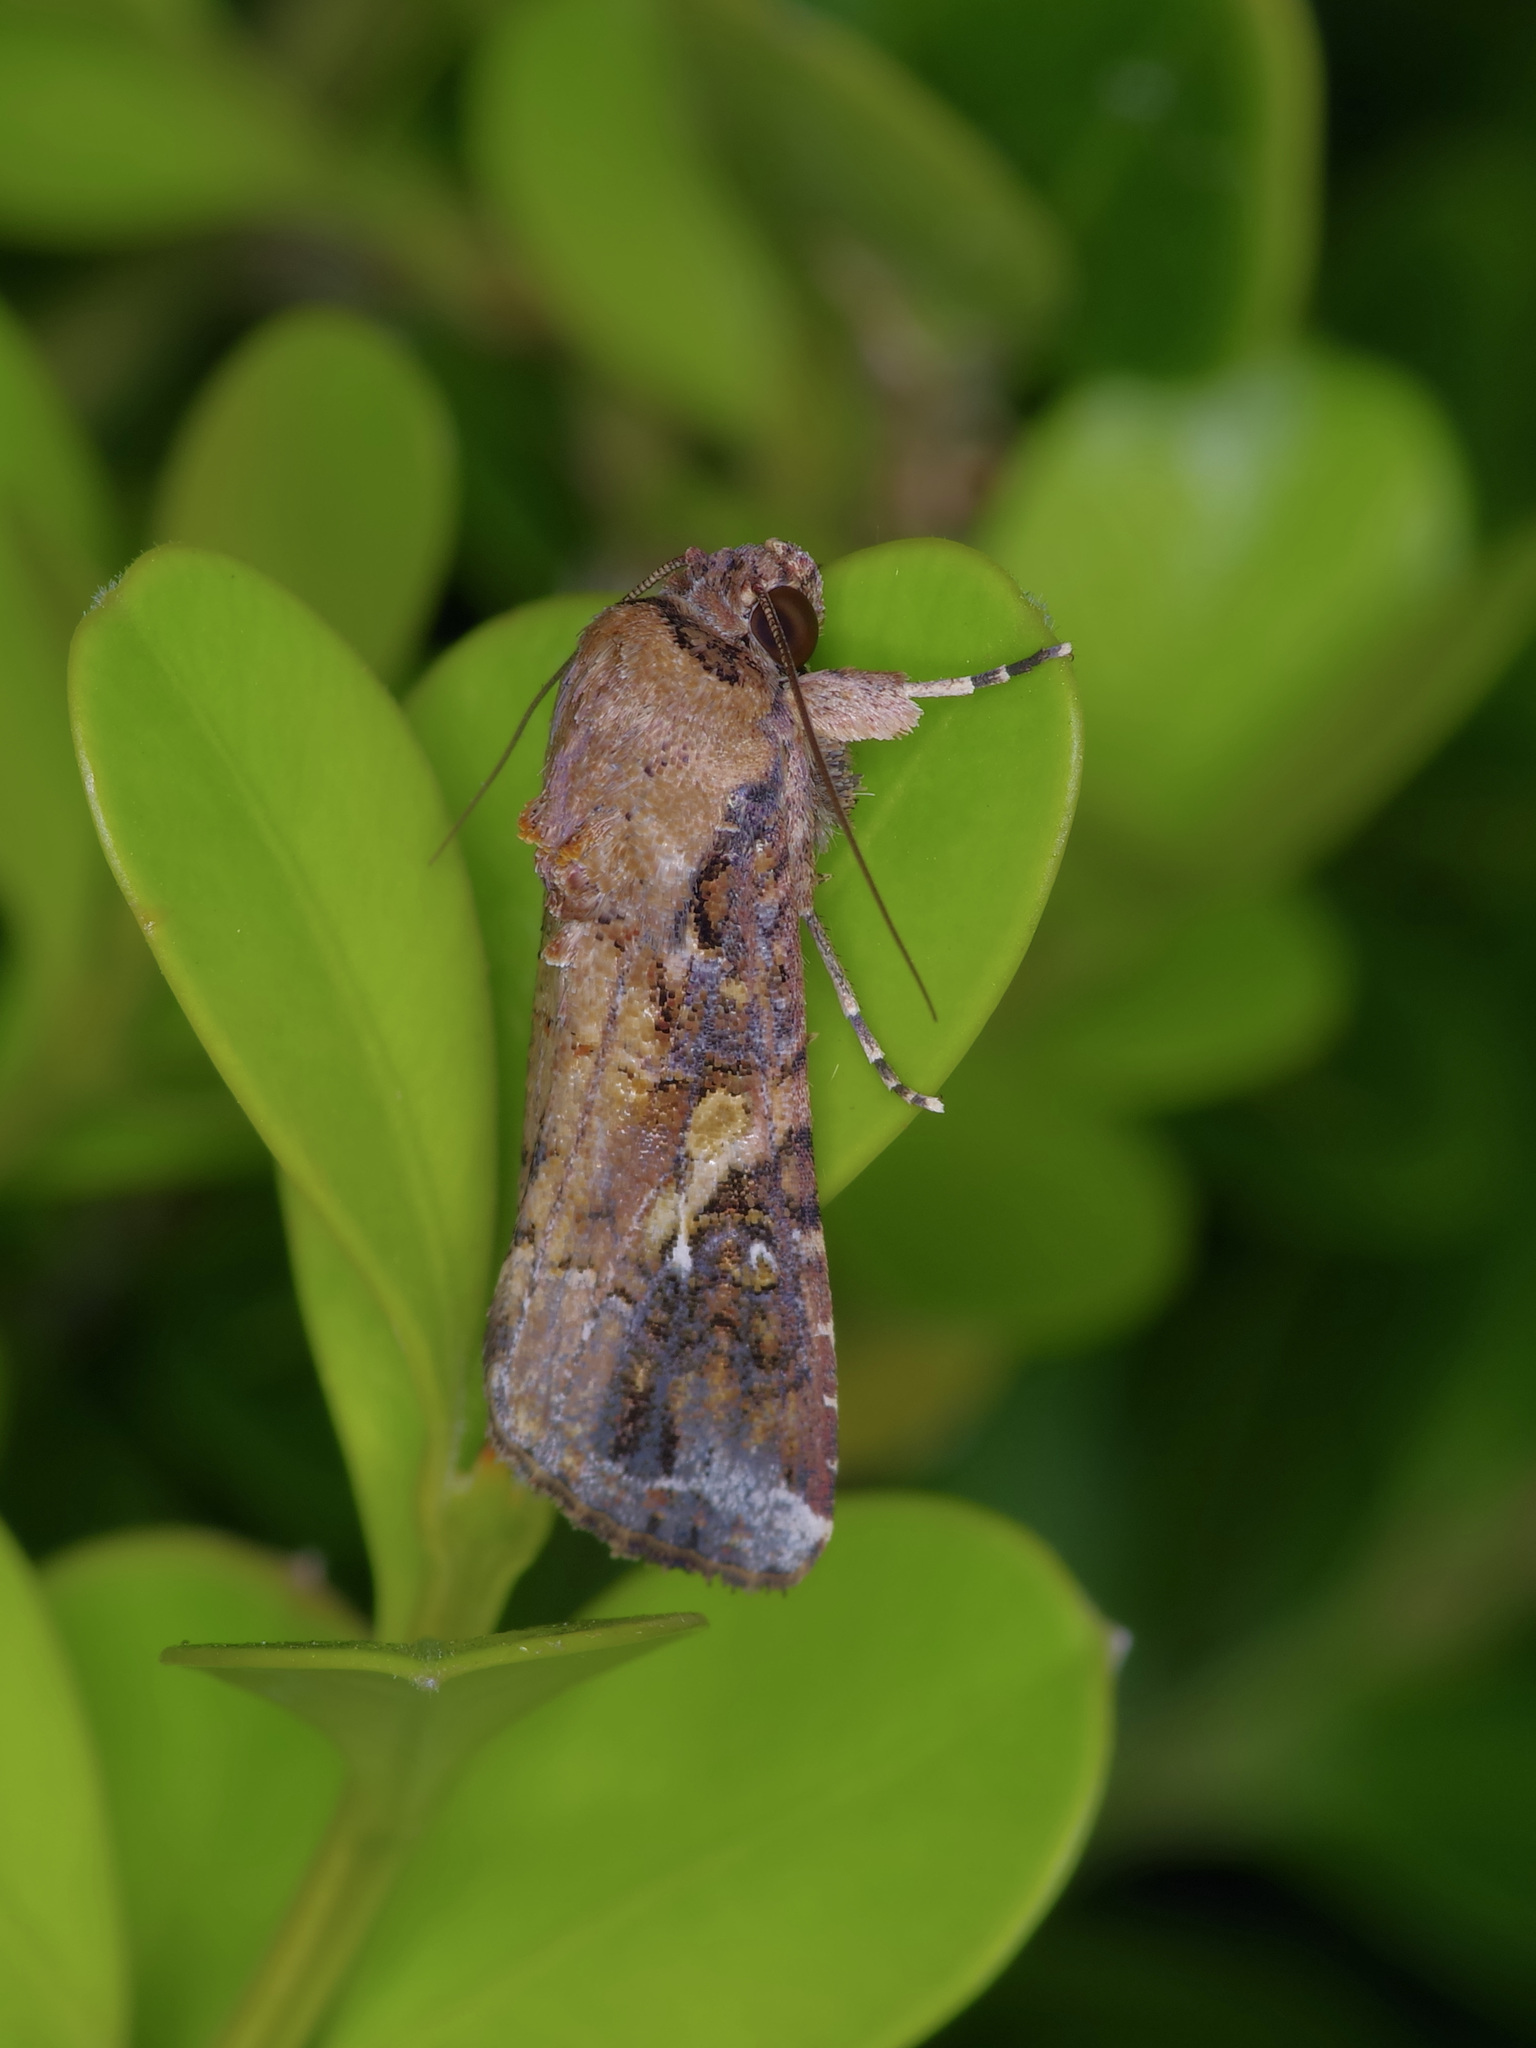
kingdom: Animalia
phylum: Arthropoda
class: Insecta
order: Lepidoptera
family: Noctuidae
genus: Spodoptera
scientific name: Spodoptera frugiperda
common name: Fall armyworm
